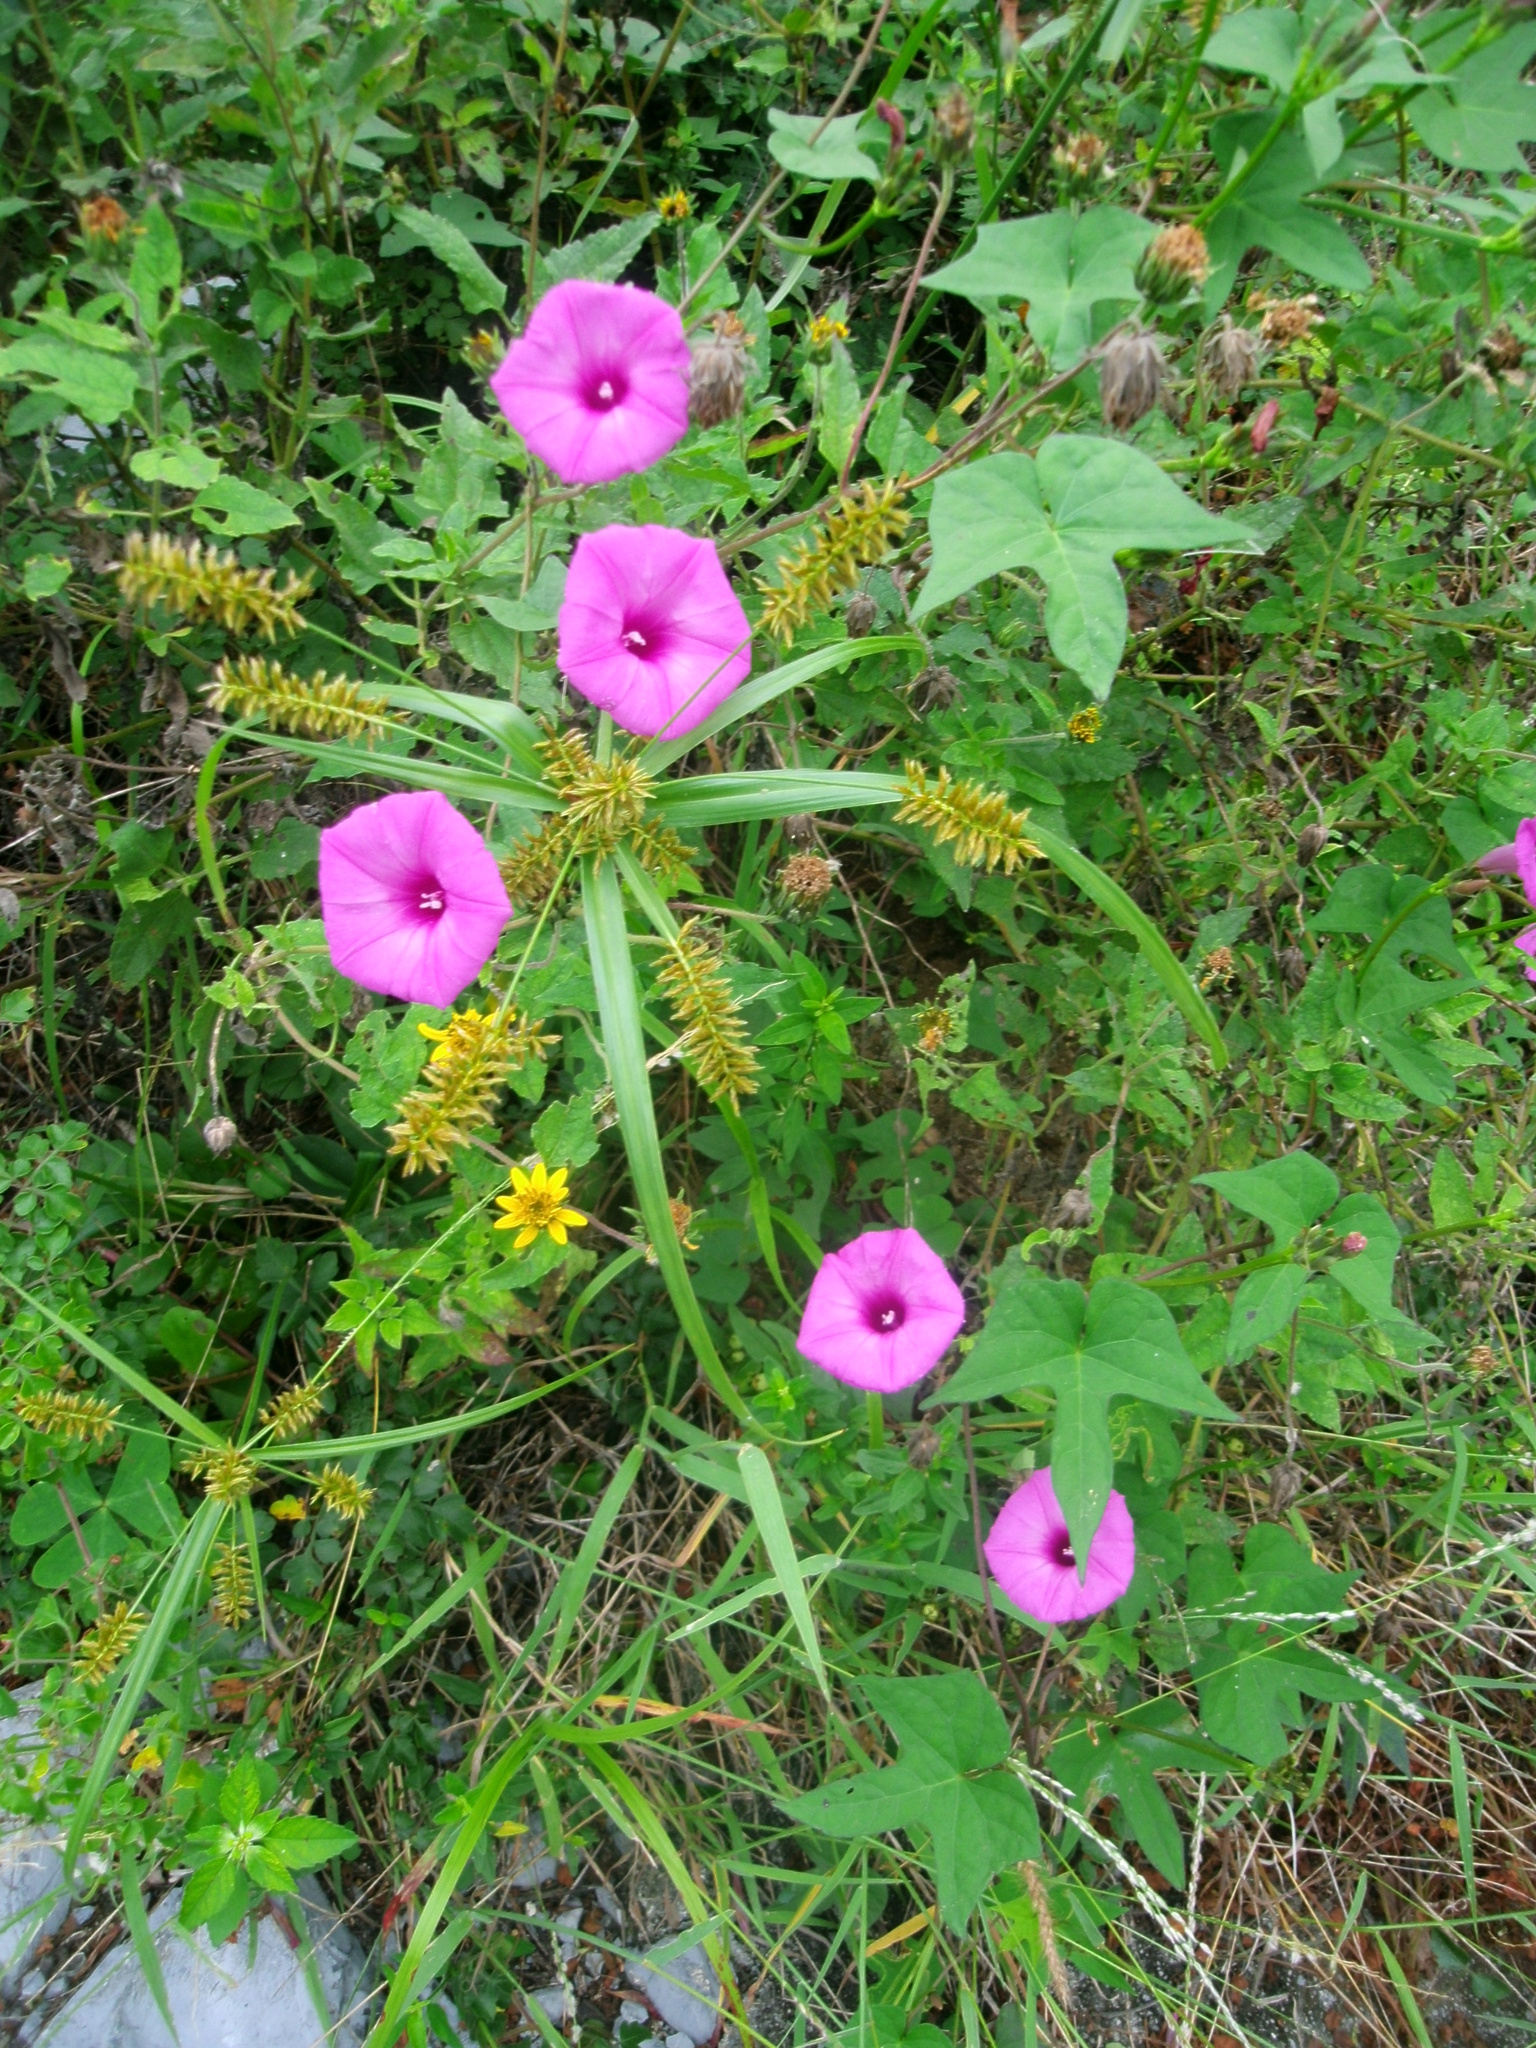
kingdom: Plantae
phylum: Tracheophyta
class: Magnoliopsida
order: Solanales
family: Convolvulaceae
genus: Ipomoea
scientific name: Ipomoea cordatotriloba
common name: Cotton morning glory
